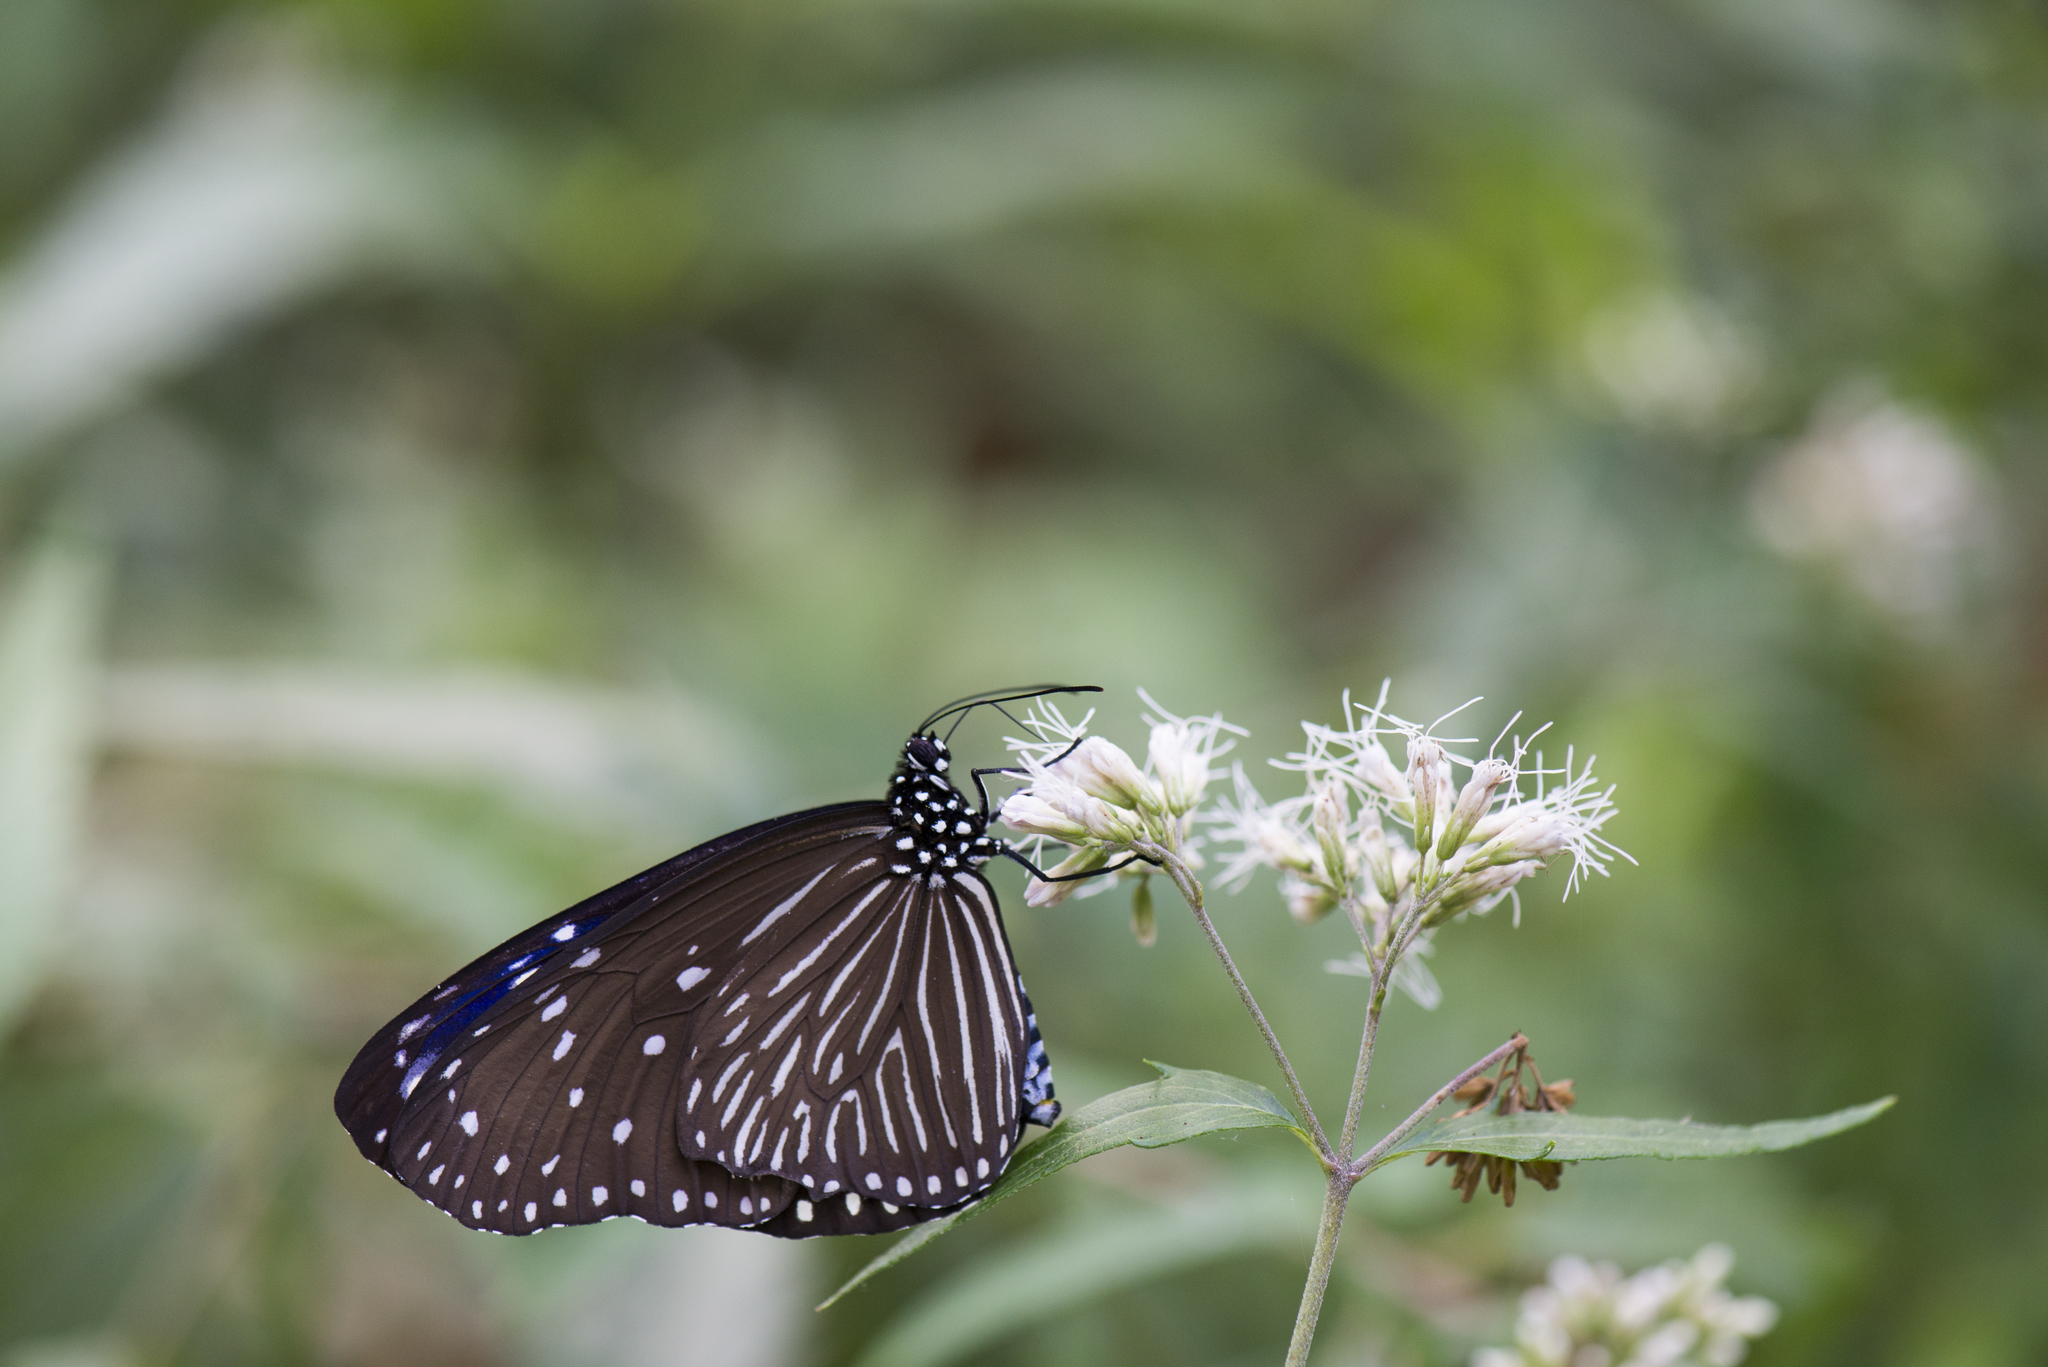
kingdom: Animalia
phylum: Arthropoda
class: Insecta
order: Lepidoptera
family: Nymphalidae
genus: Euploea
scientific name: Euploea mulciber
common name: Striped blue crow butterfly
